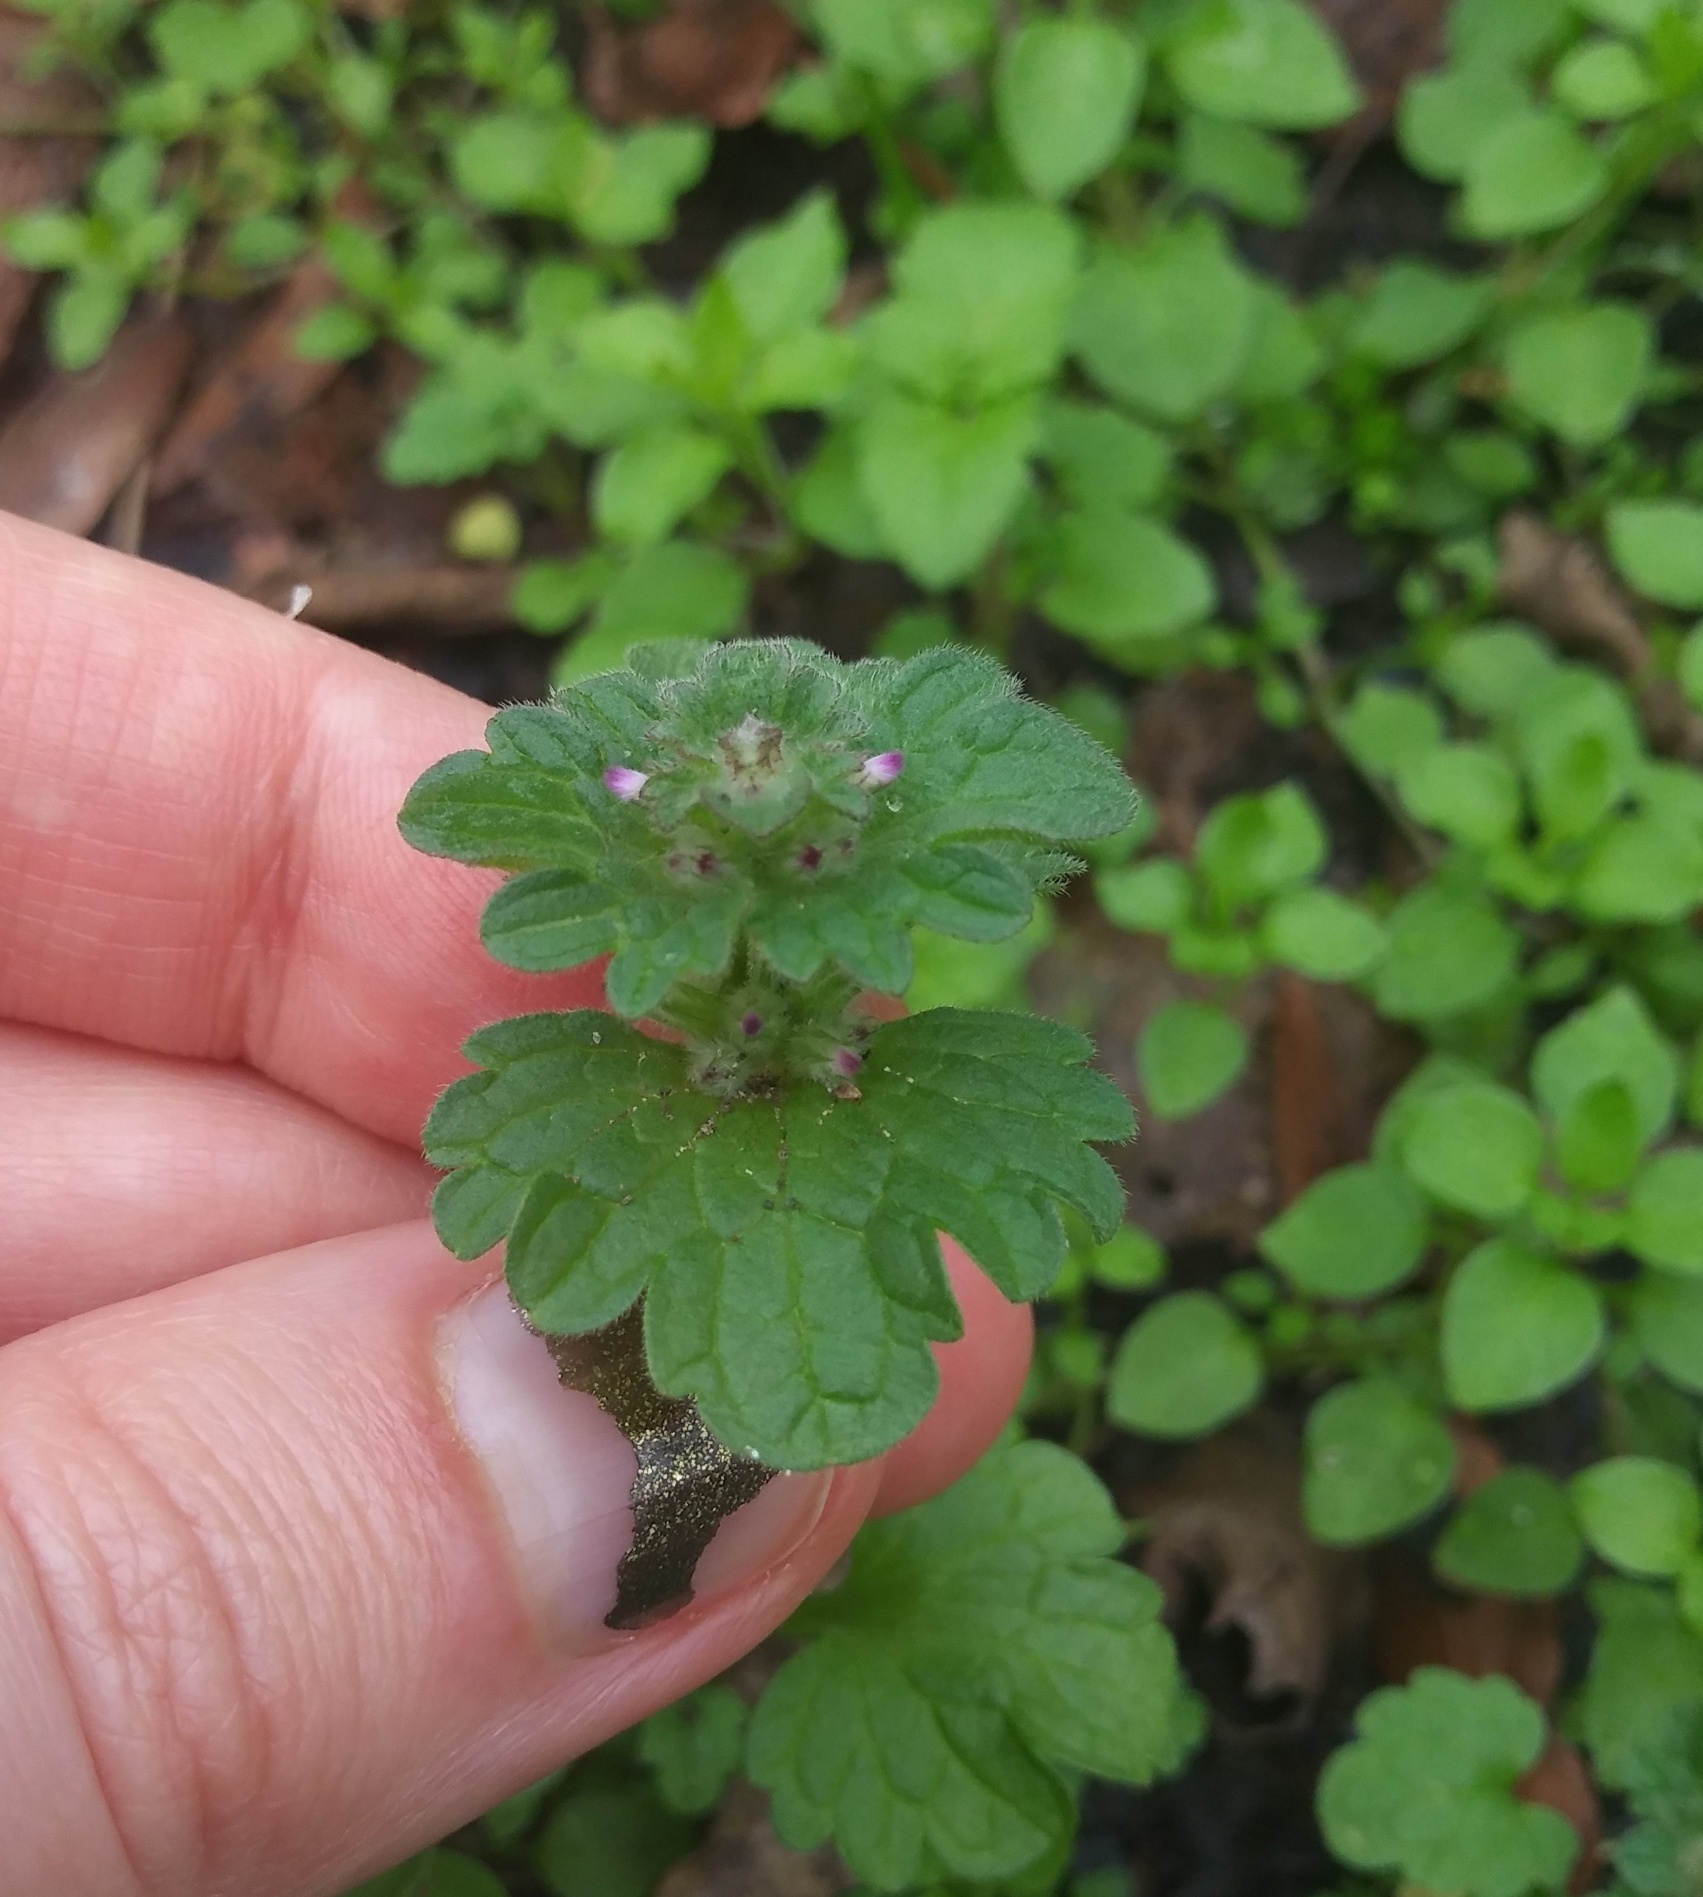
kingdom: Plantae
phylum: Tracheophyta
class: Magnoliopsida
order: Lamiales
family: Lamiaceae
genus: Lamium
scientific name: Lamium amplexicaule
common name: Henbit dead-nettle
